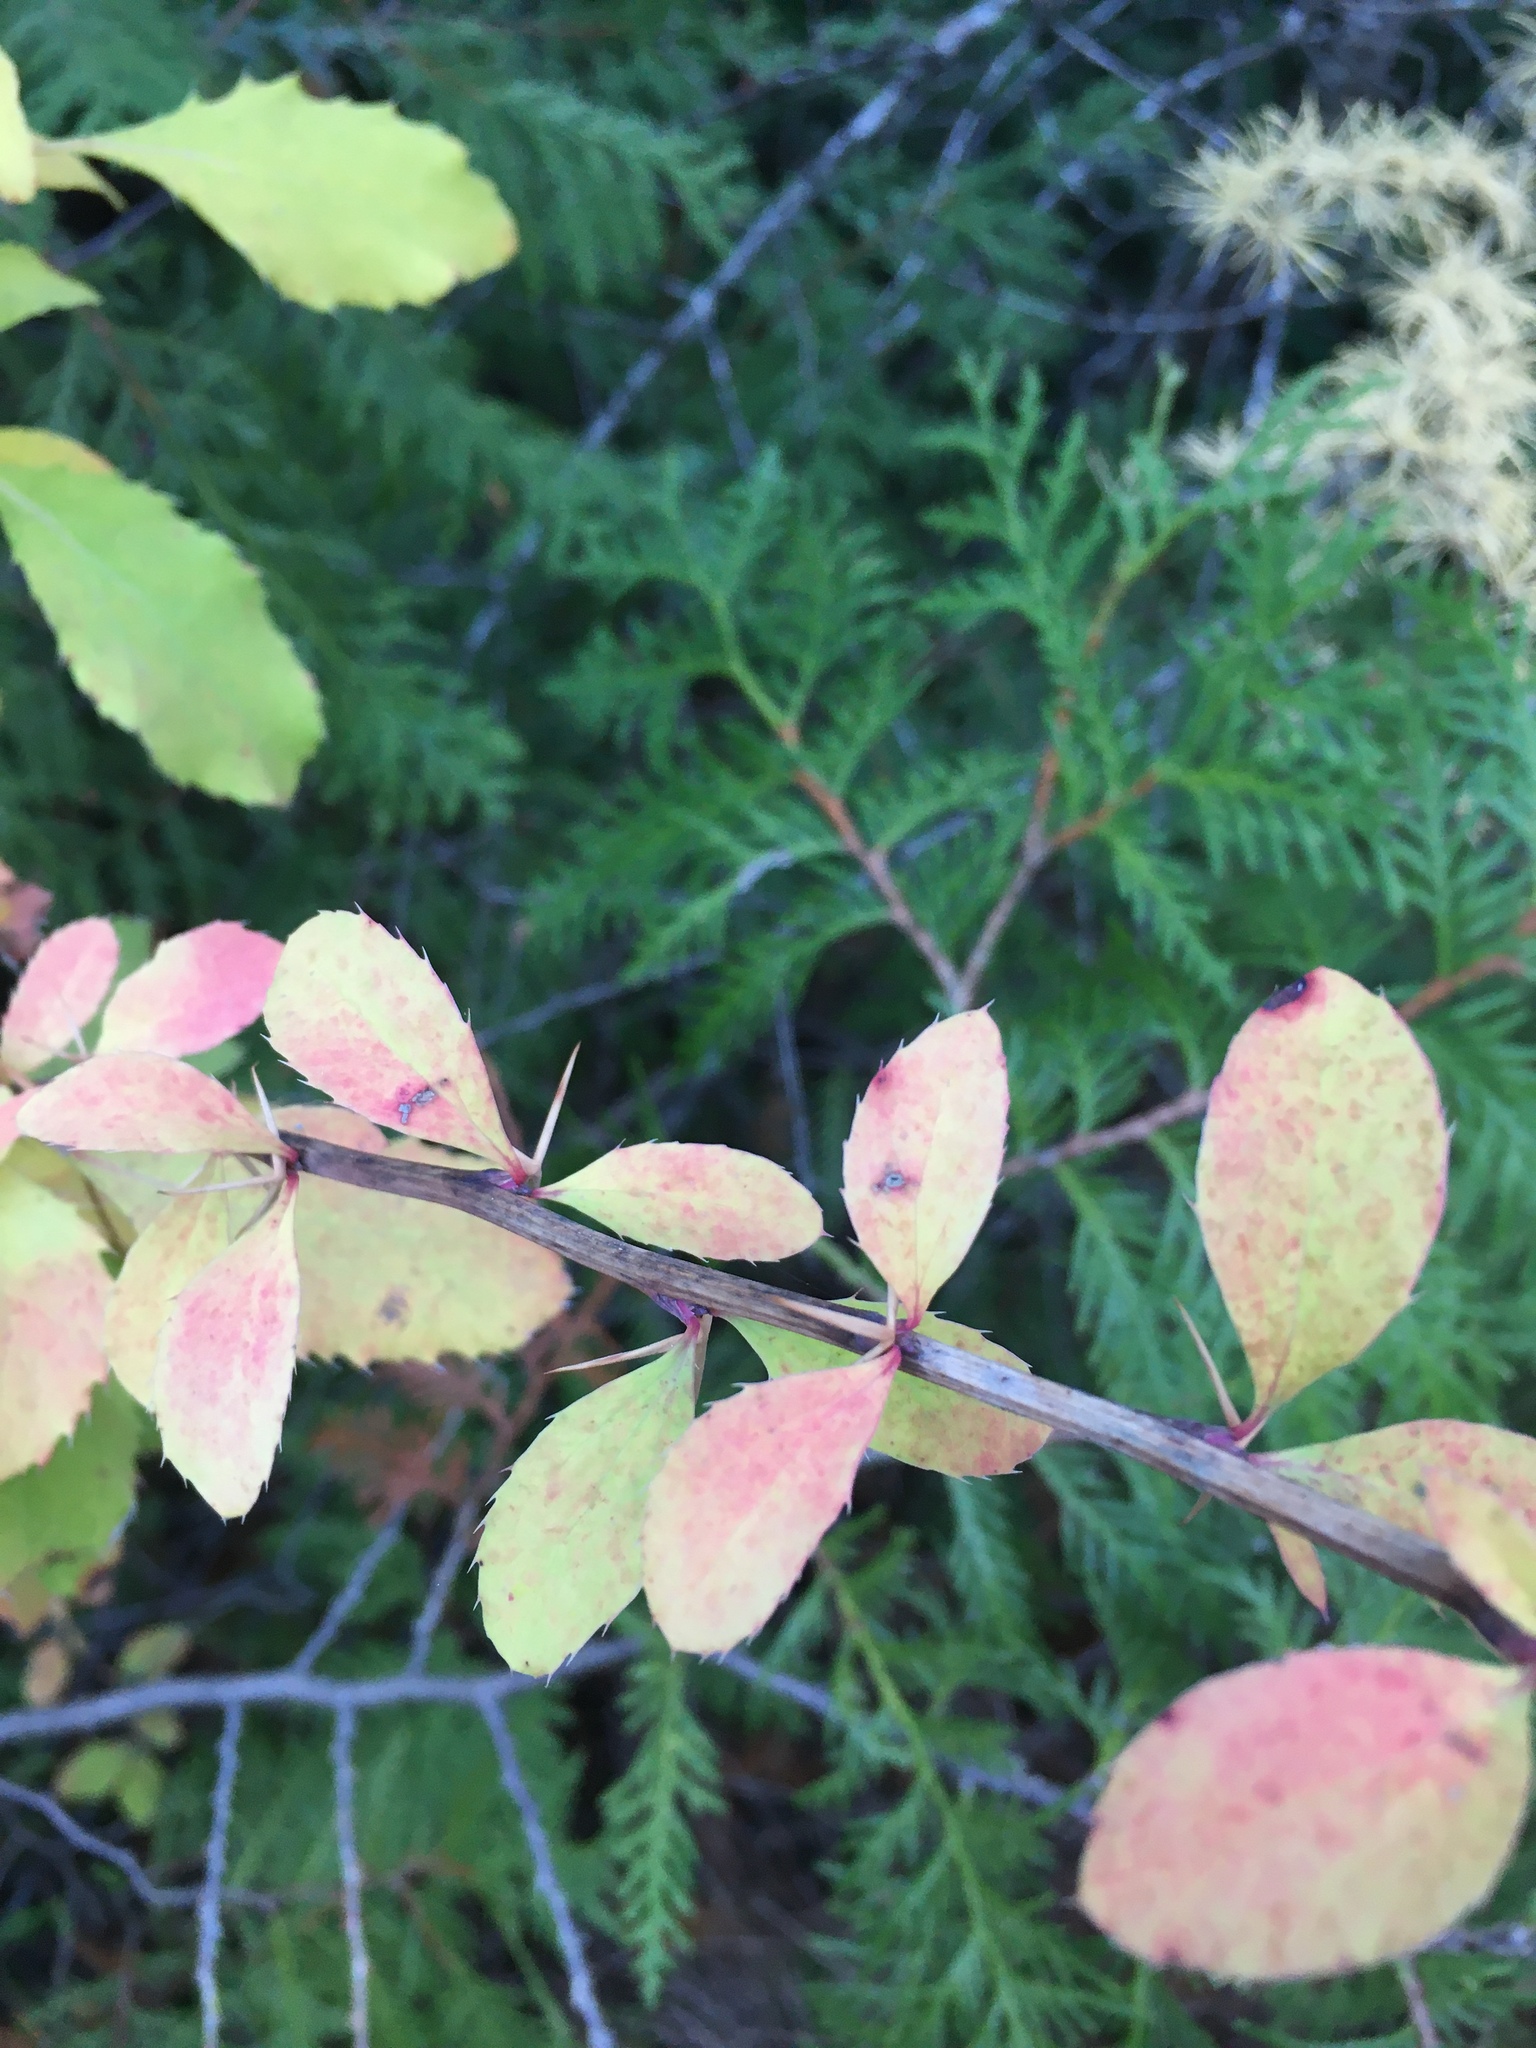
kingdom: Plantae
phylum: Tracheophyta
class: Magnoliopsida
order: Ranunculales
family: Berberidaceae
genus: Berberis
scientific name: Berberis vulgaris
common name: Barberry
